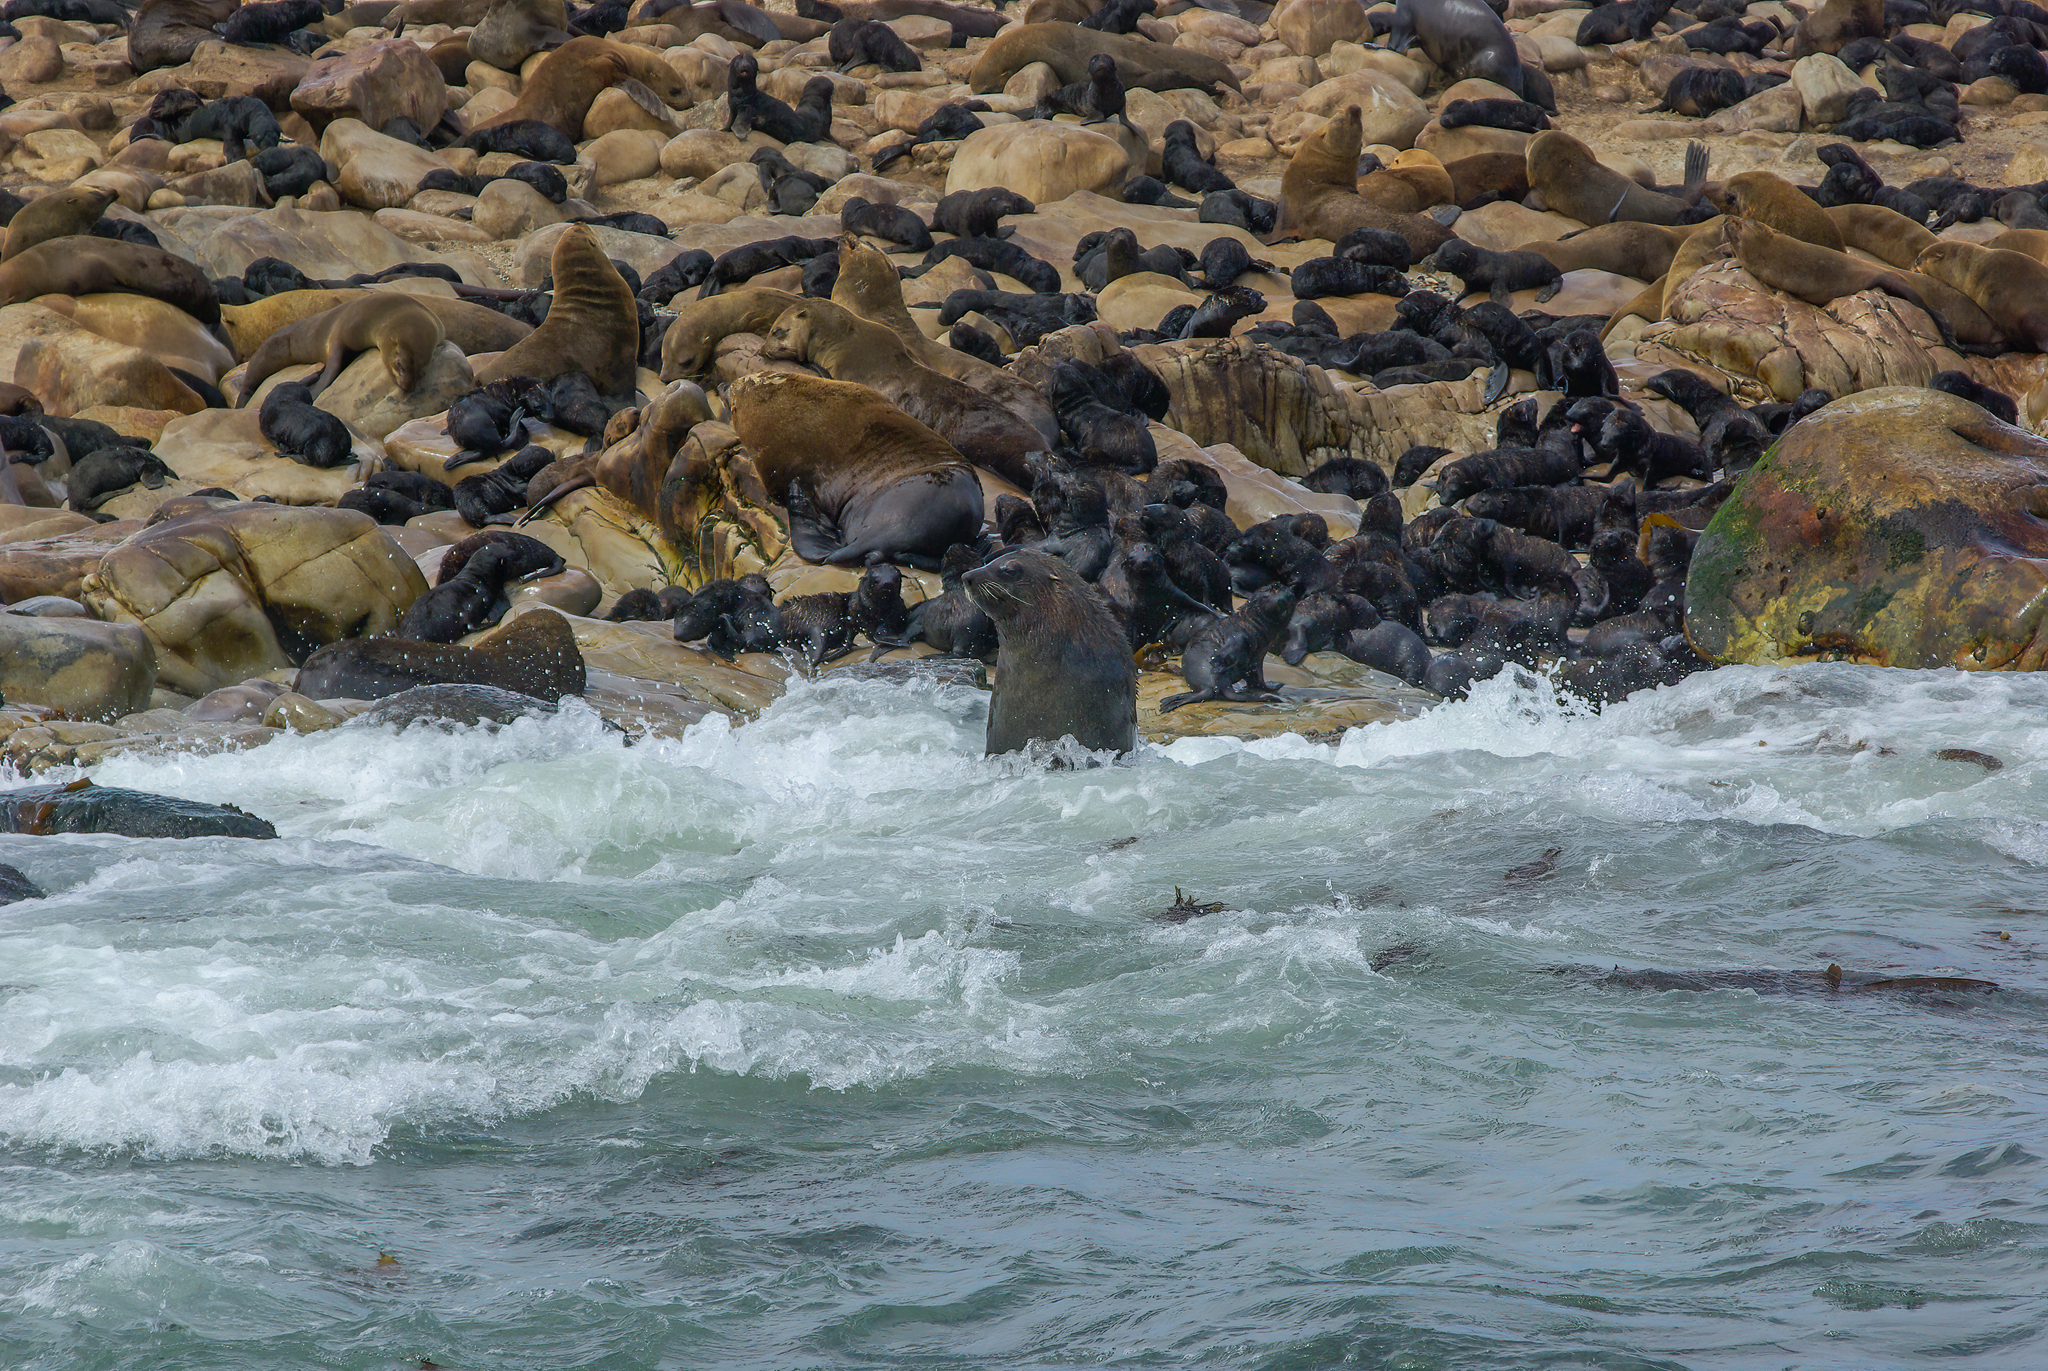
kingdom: Animalia
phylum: Chordata
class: Mammalia
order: Carnivora
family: Otariidae
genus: Arctocephalus
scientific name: Arctocephalus pusillus
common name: Brown fur seal
